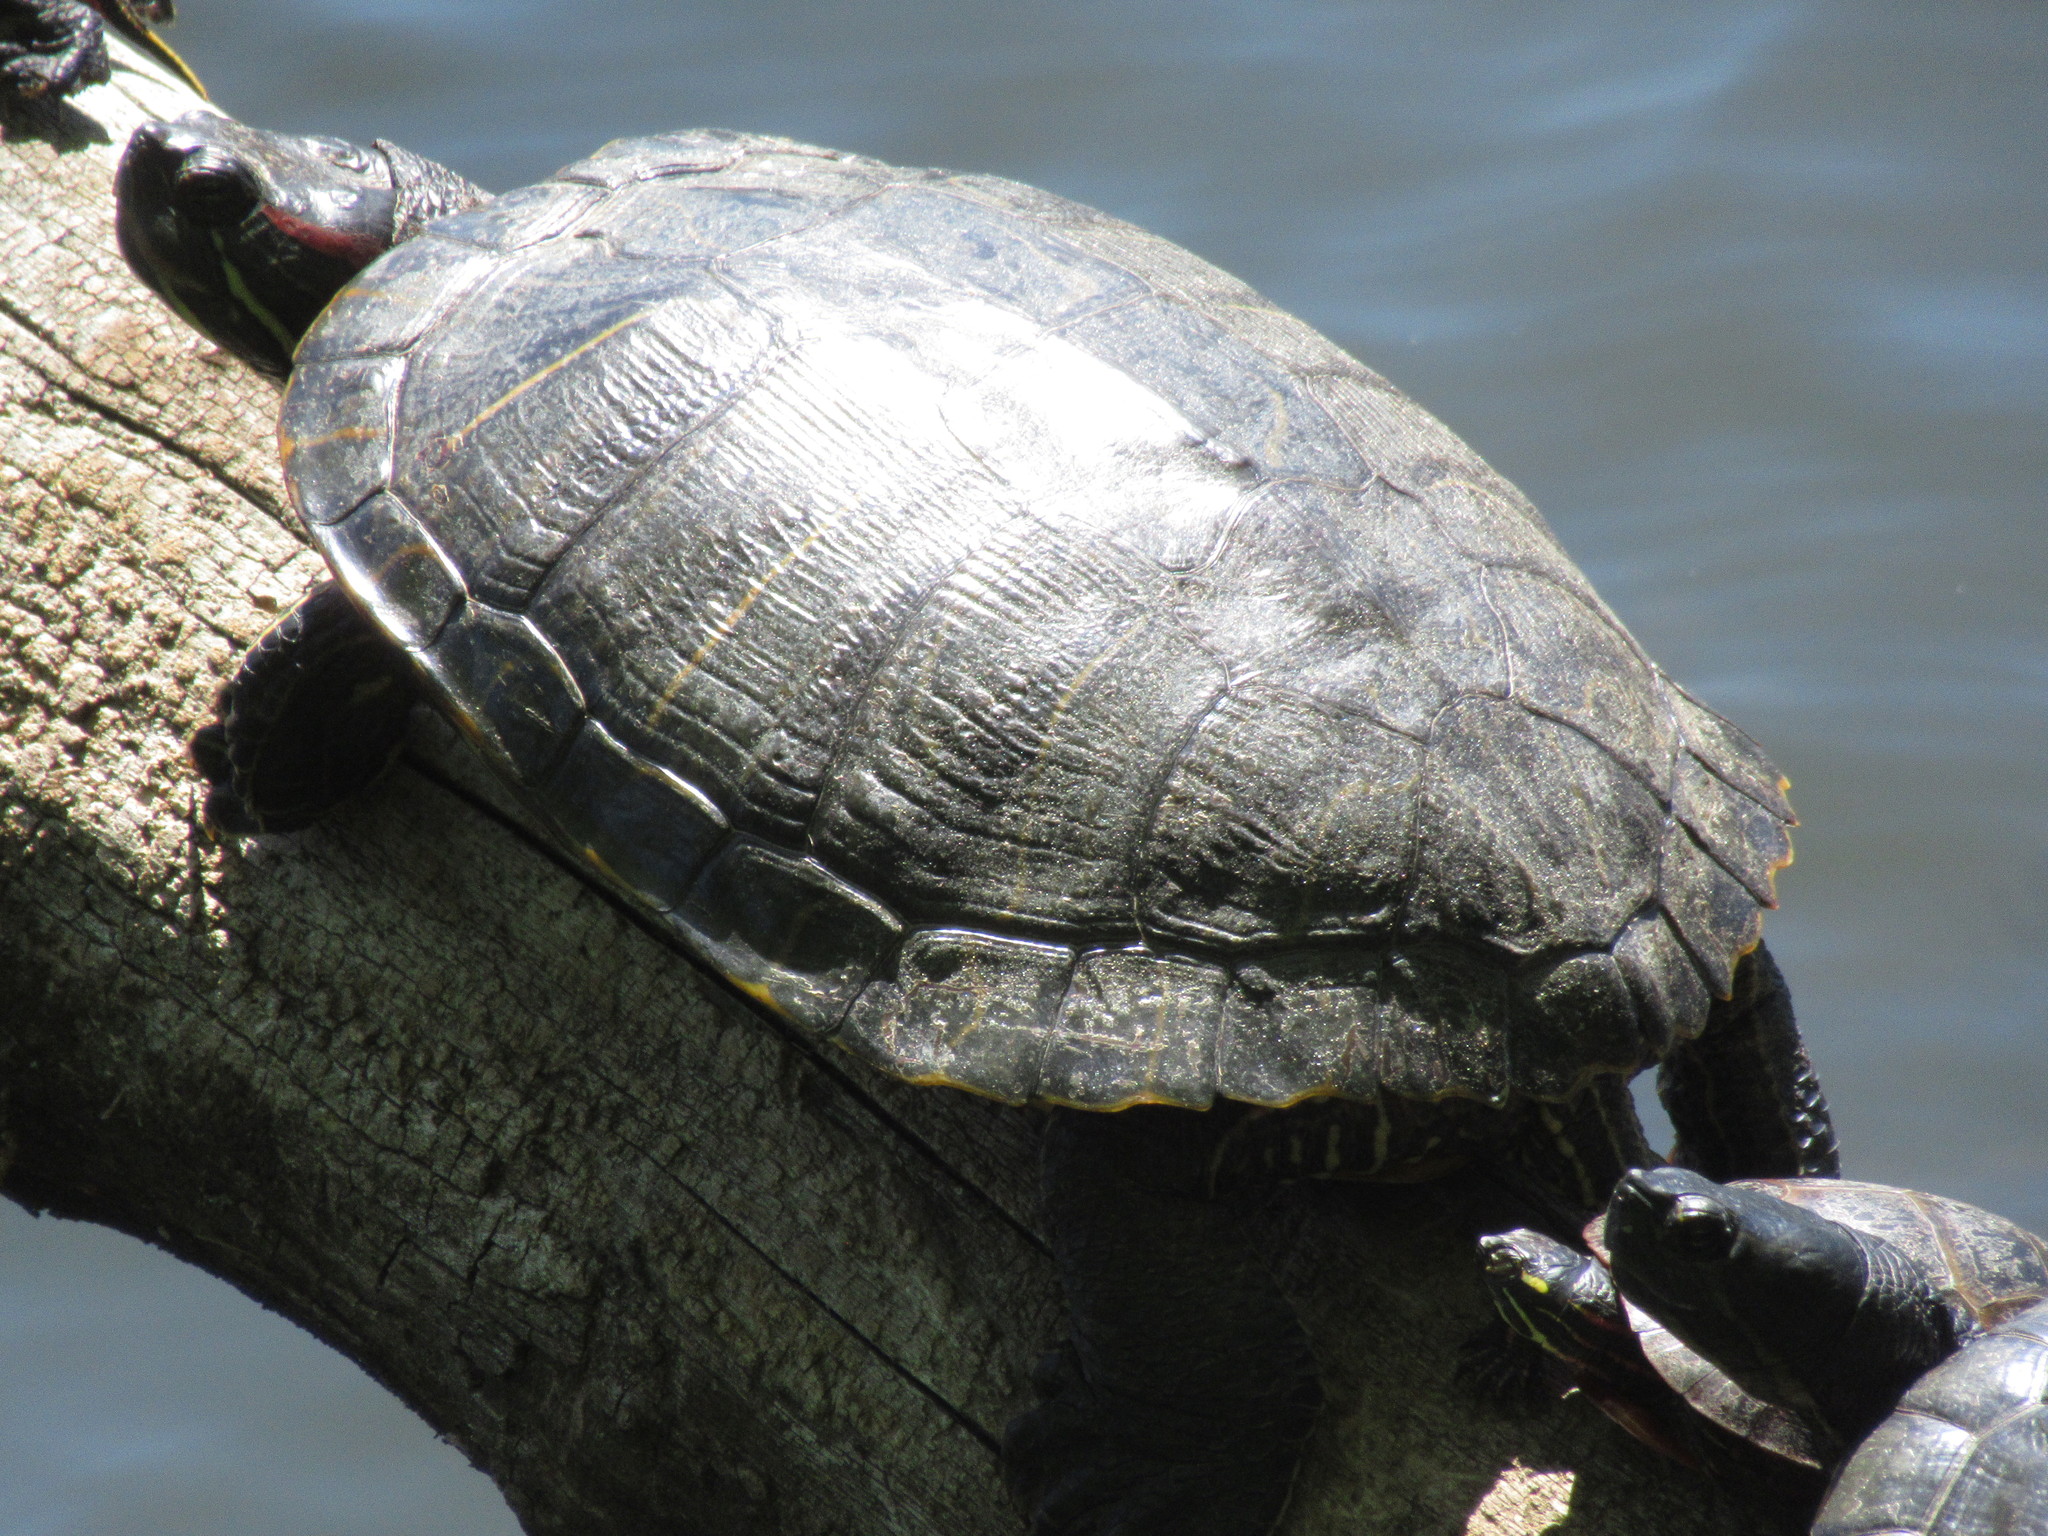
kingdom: Animalia
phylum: Chordata
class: Testudines
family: Emydidae
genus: Trachemys
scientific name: Trachemys scripta
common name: Slider
